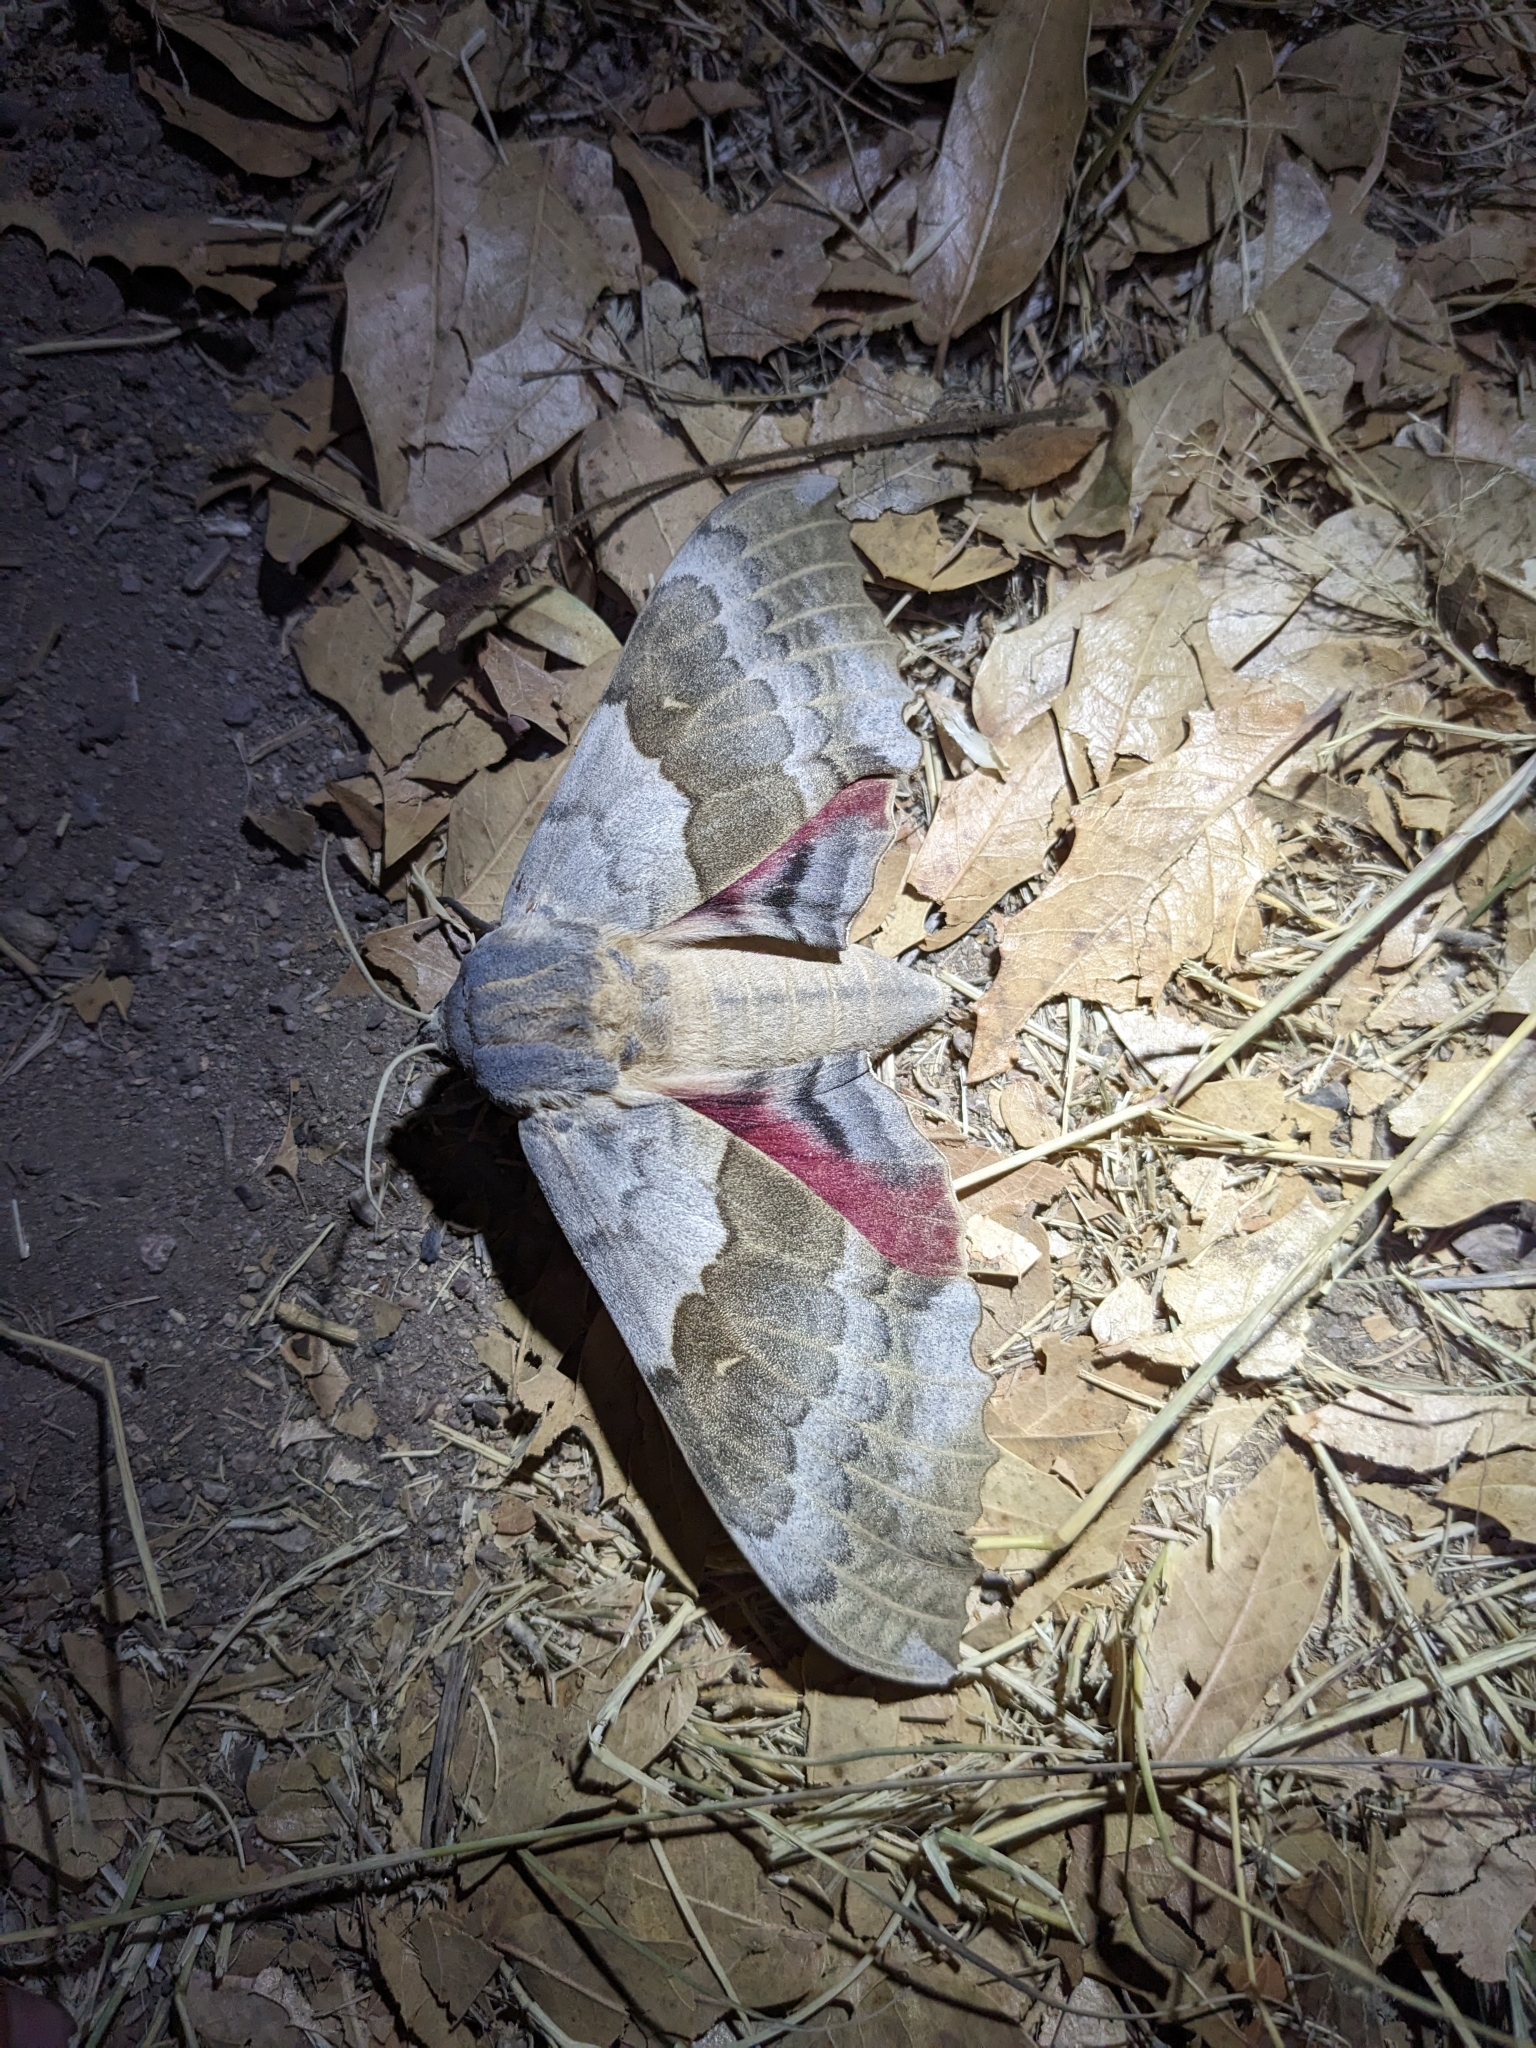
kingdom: Animalia
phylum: Arthropoda
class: Insecta
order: Lepidoptera
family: Sphingidae
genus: Pachysphinx
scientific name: Pachysphinx occidentalis
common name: Western poplar sphinx
